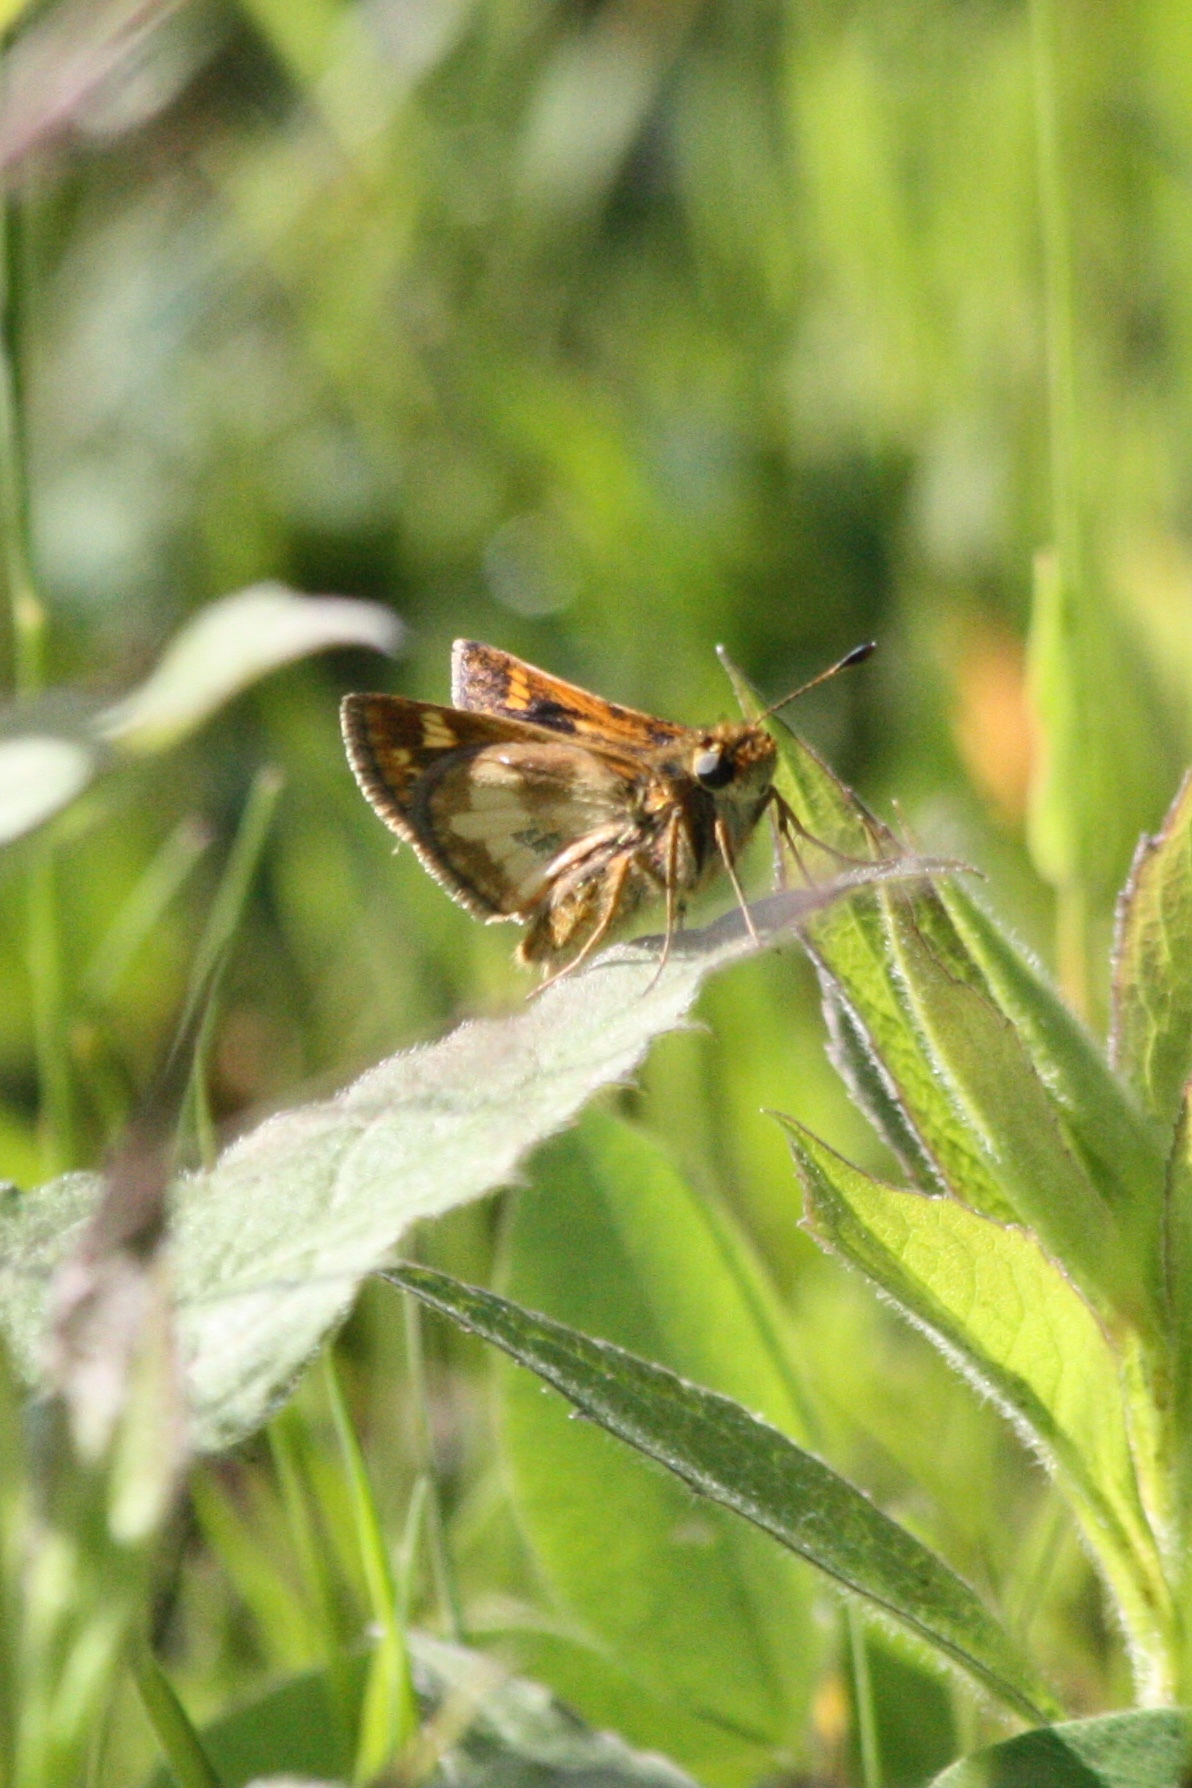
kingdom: Animalia
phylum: Arthropoda
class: Insecta
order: Lepidoptera
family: Hesperiidae
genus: Polites
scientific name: Polites coras
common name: Peck's skipper
